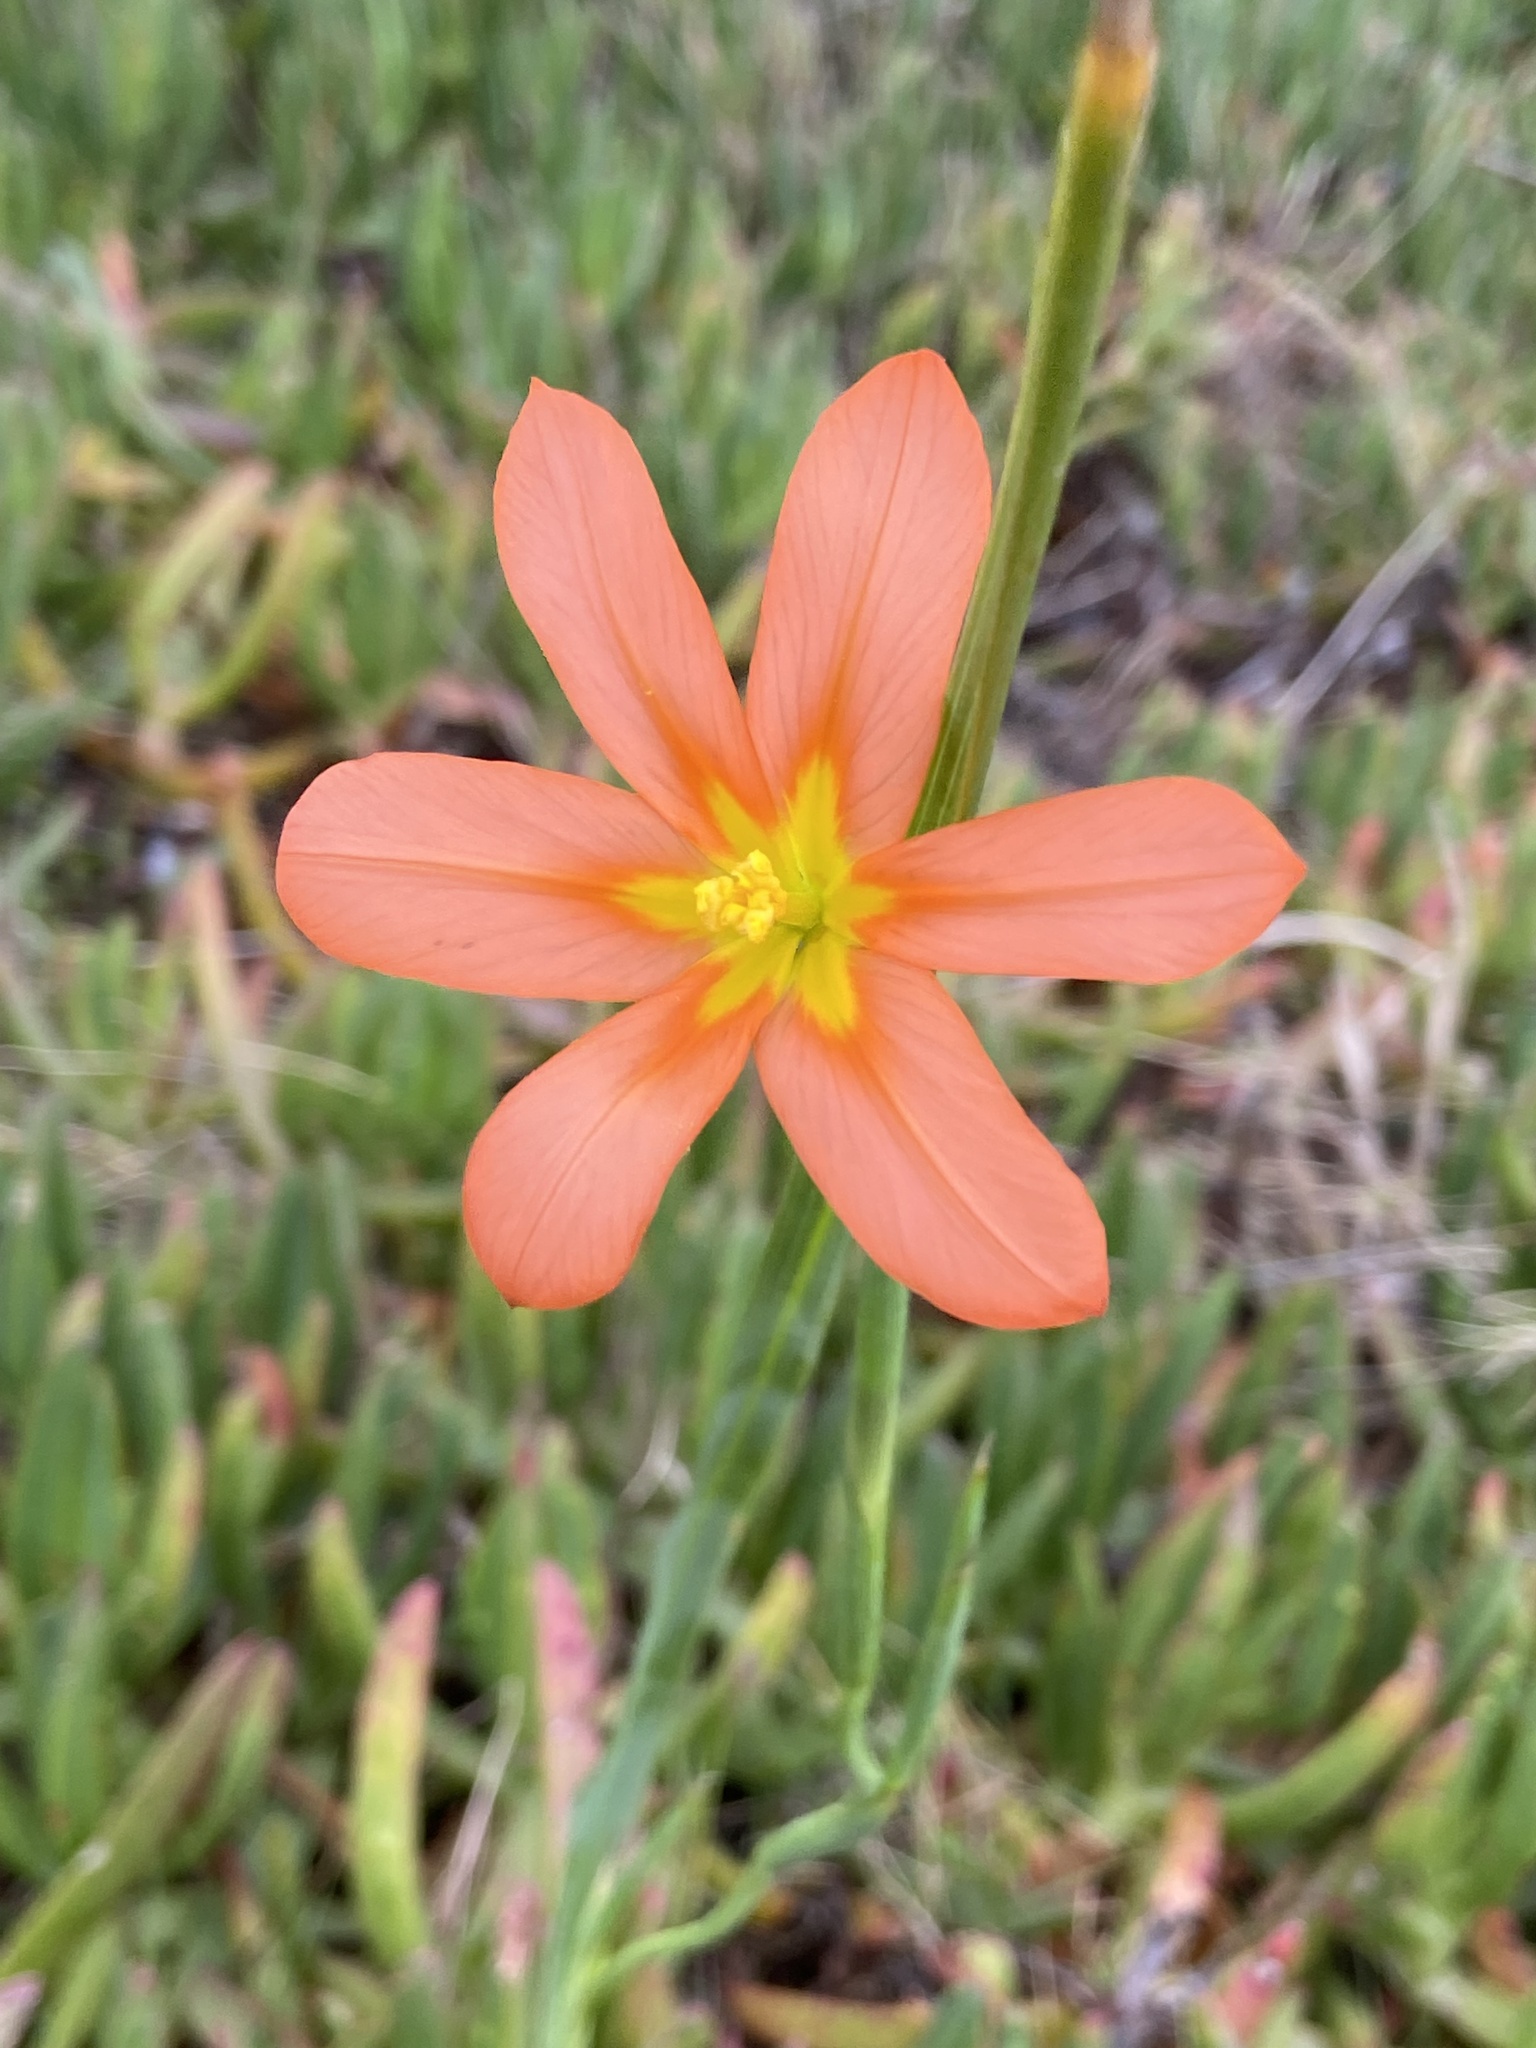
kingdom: Plantae
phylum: Tracheophyta
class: Liliopsida
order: Asparagales
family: Iridaceae
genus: Moraea
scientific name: Moraea flaccida
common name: One-leaf cape-tulip
